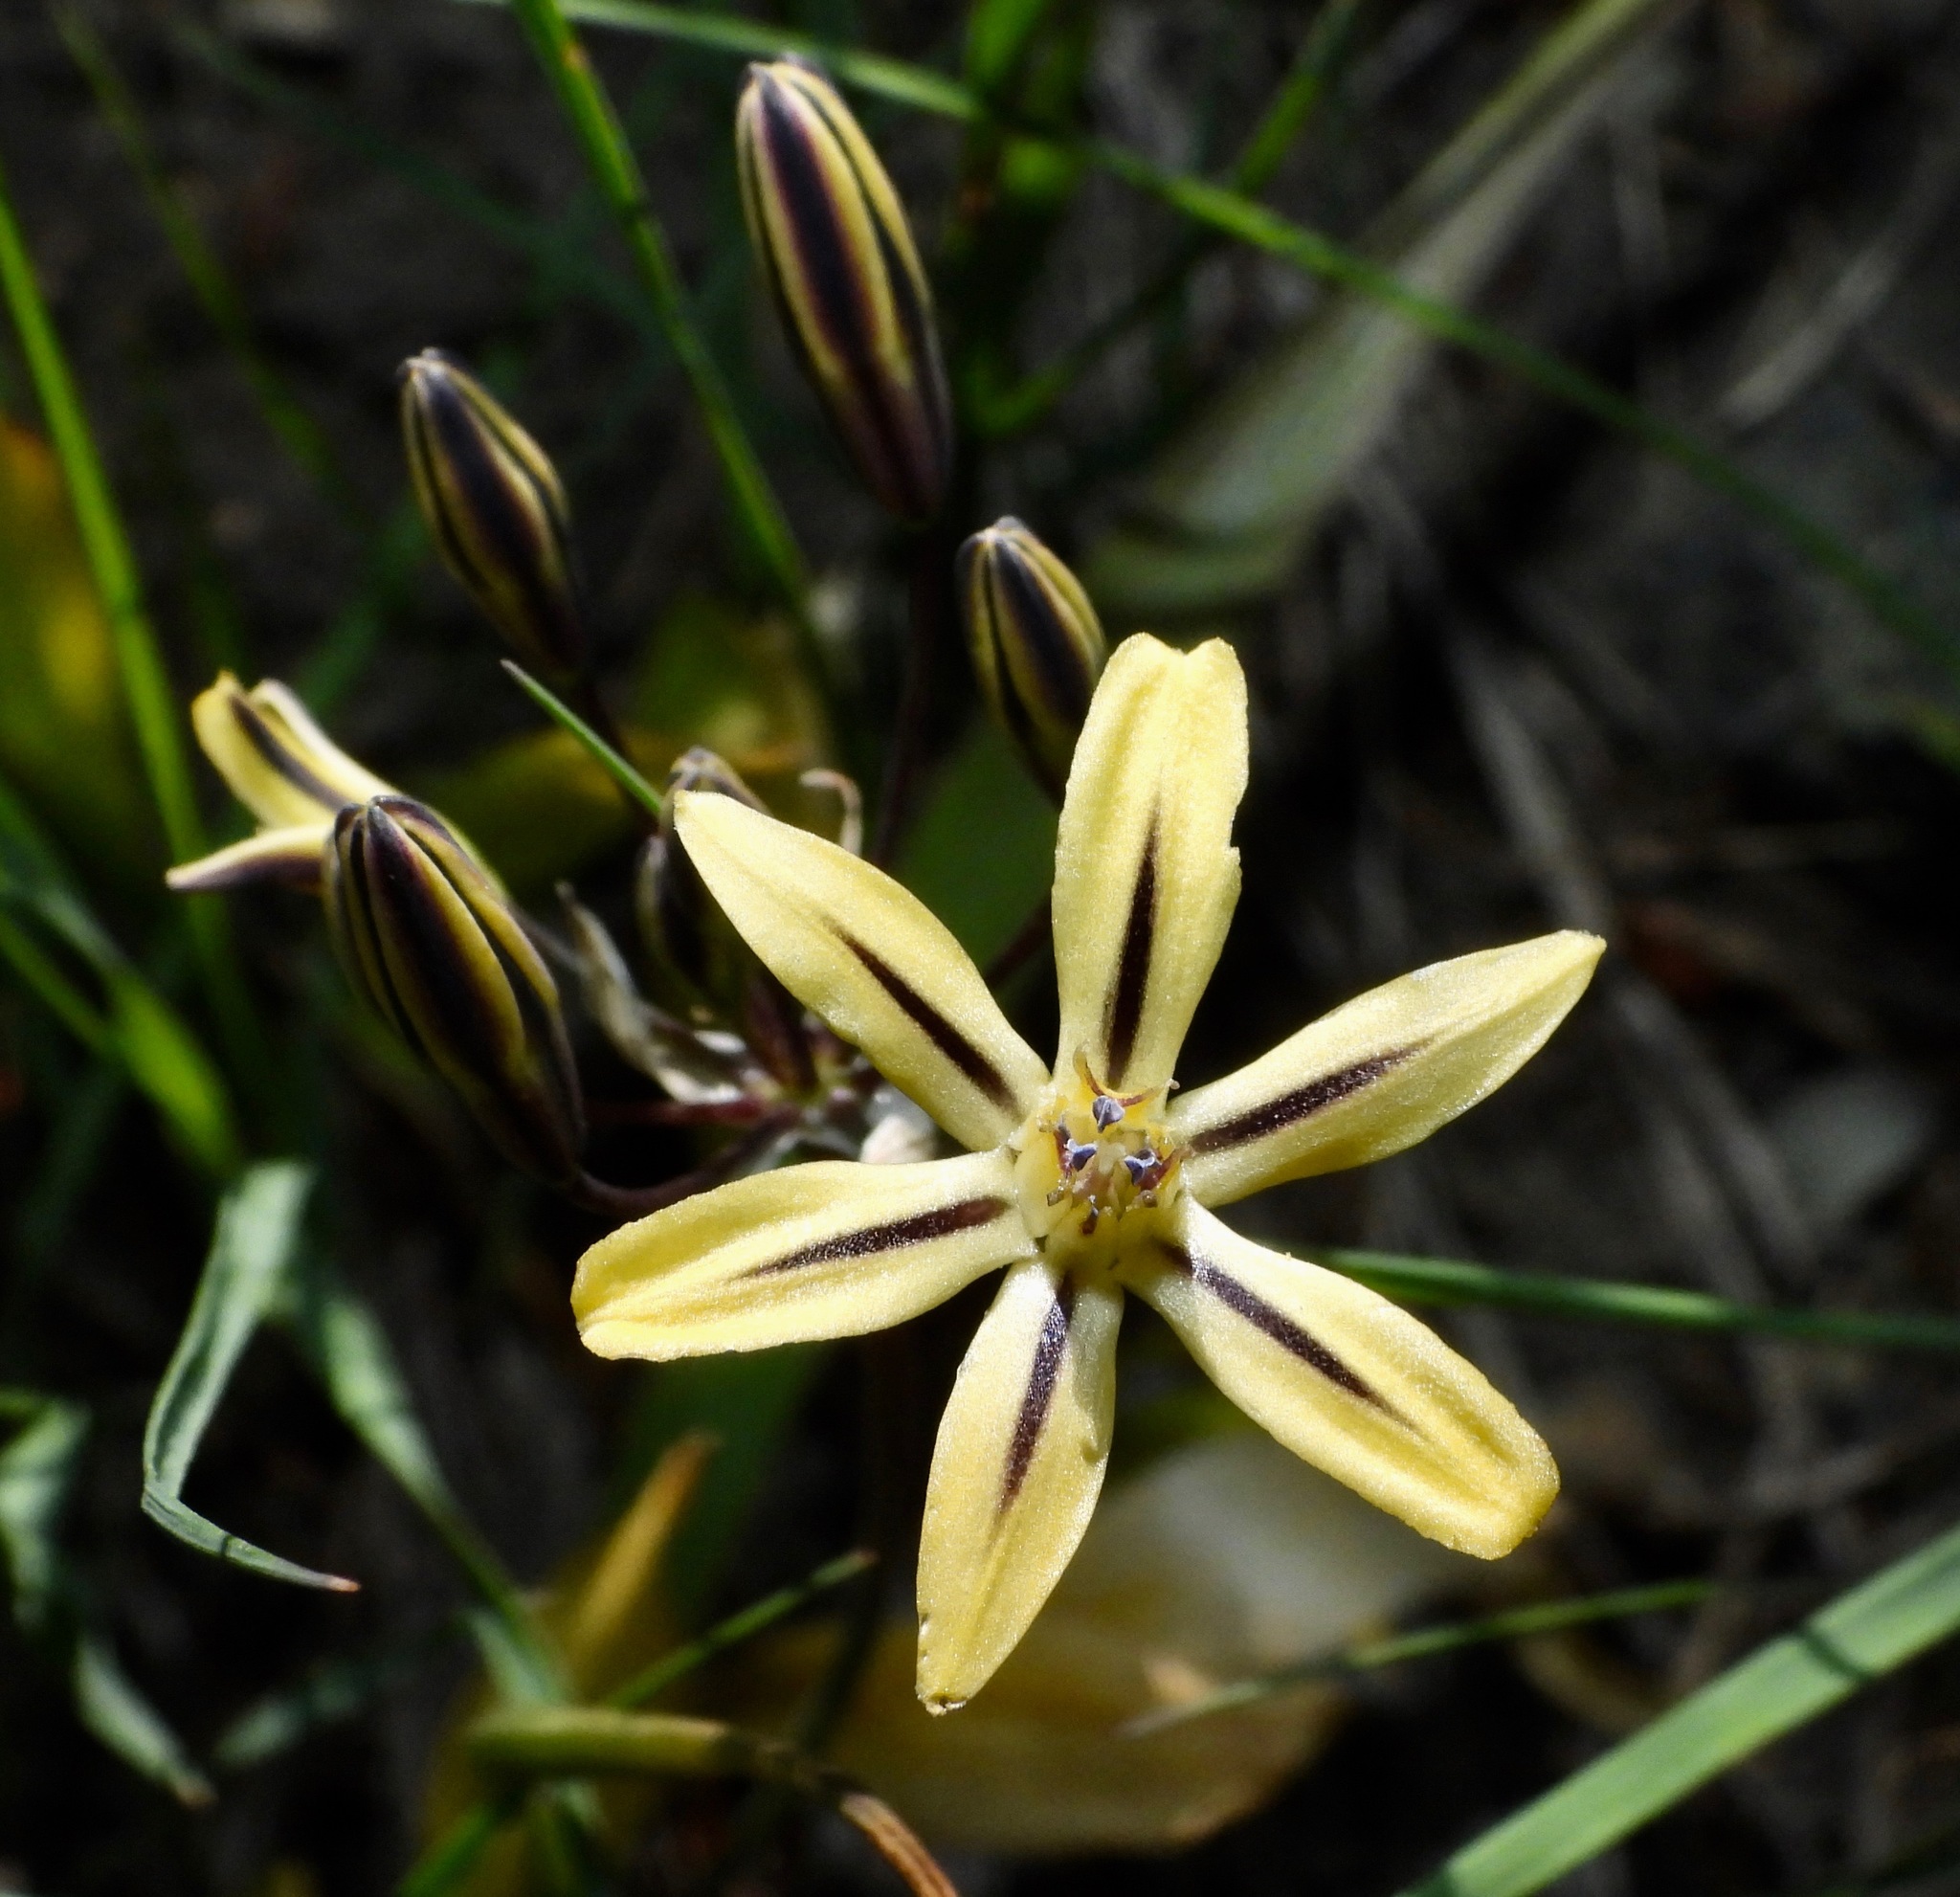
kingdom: Plantae
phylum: Tracheophyta
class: Liliopsida
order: Asparagales
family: Asparagaceae
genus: Triteleia
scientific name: Triteleia ixioides
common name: Yellow-brodiaea
